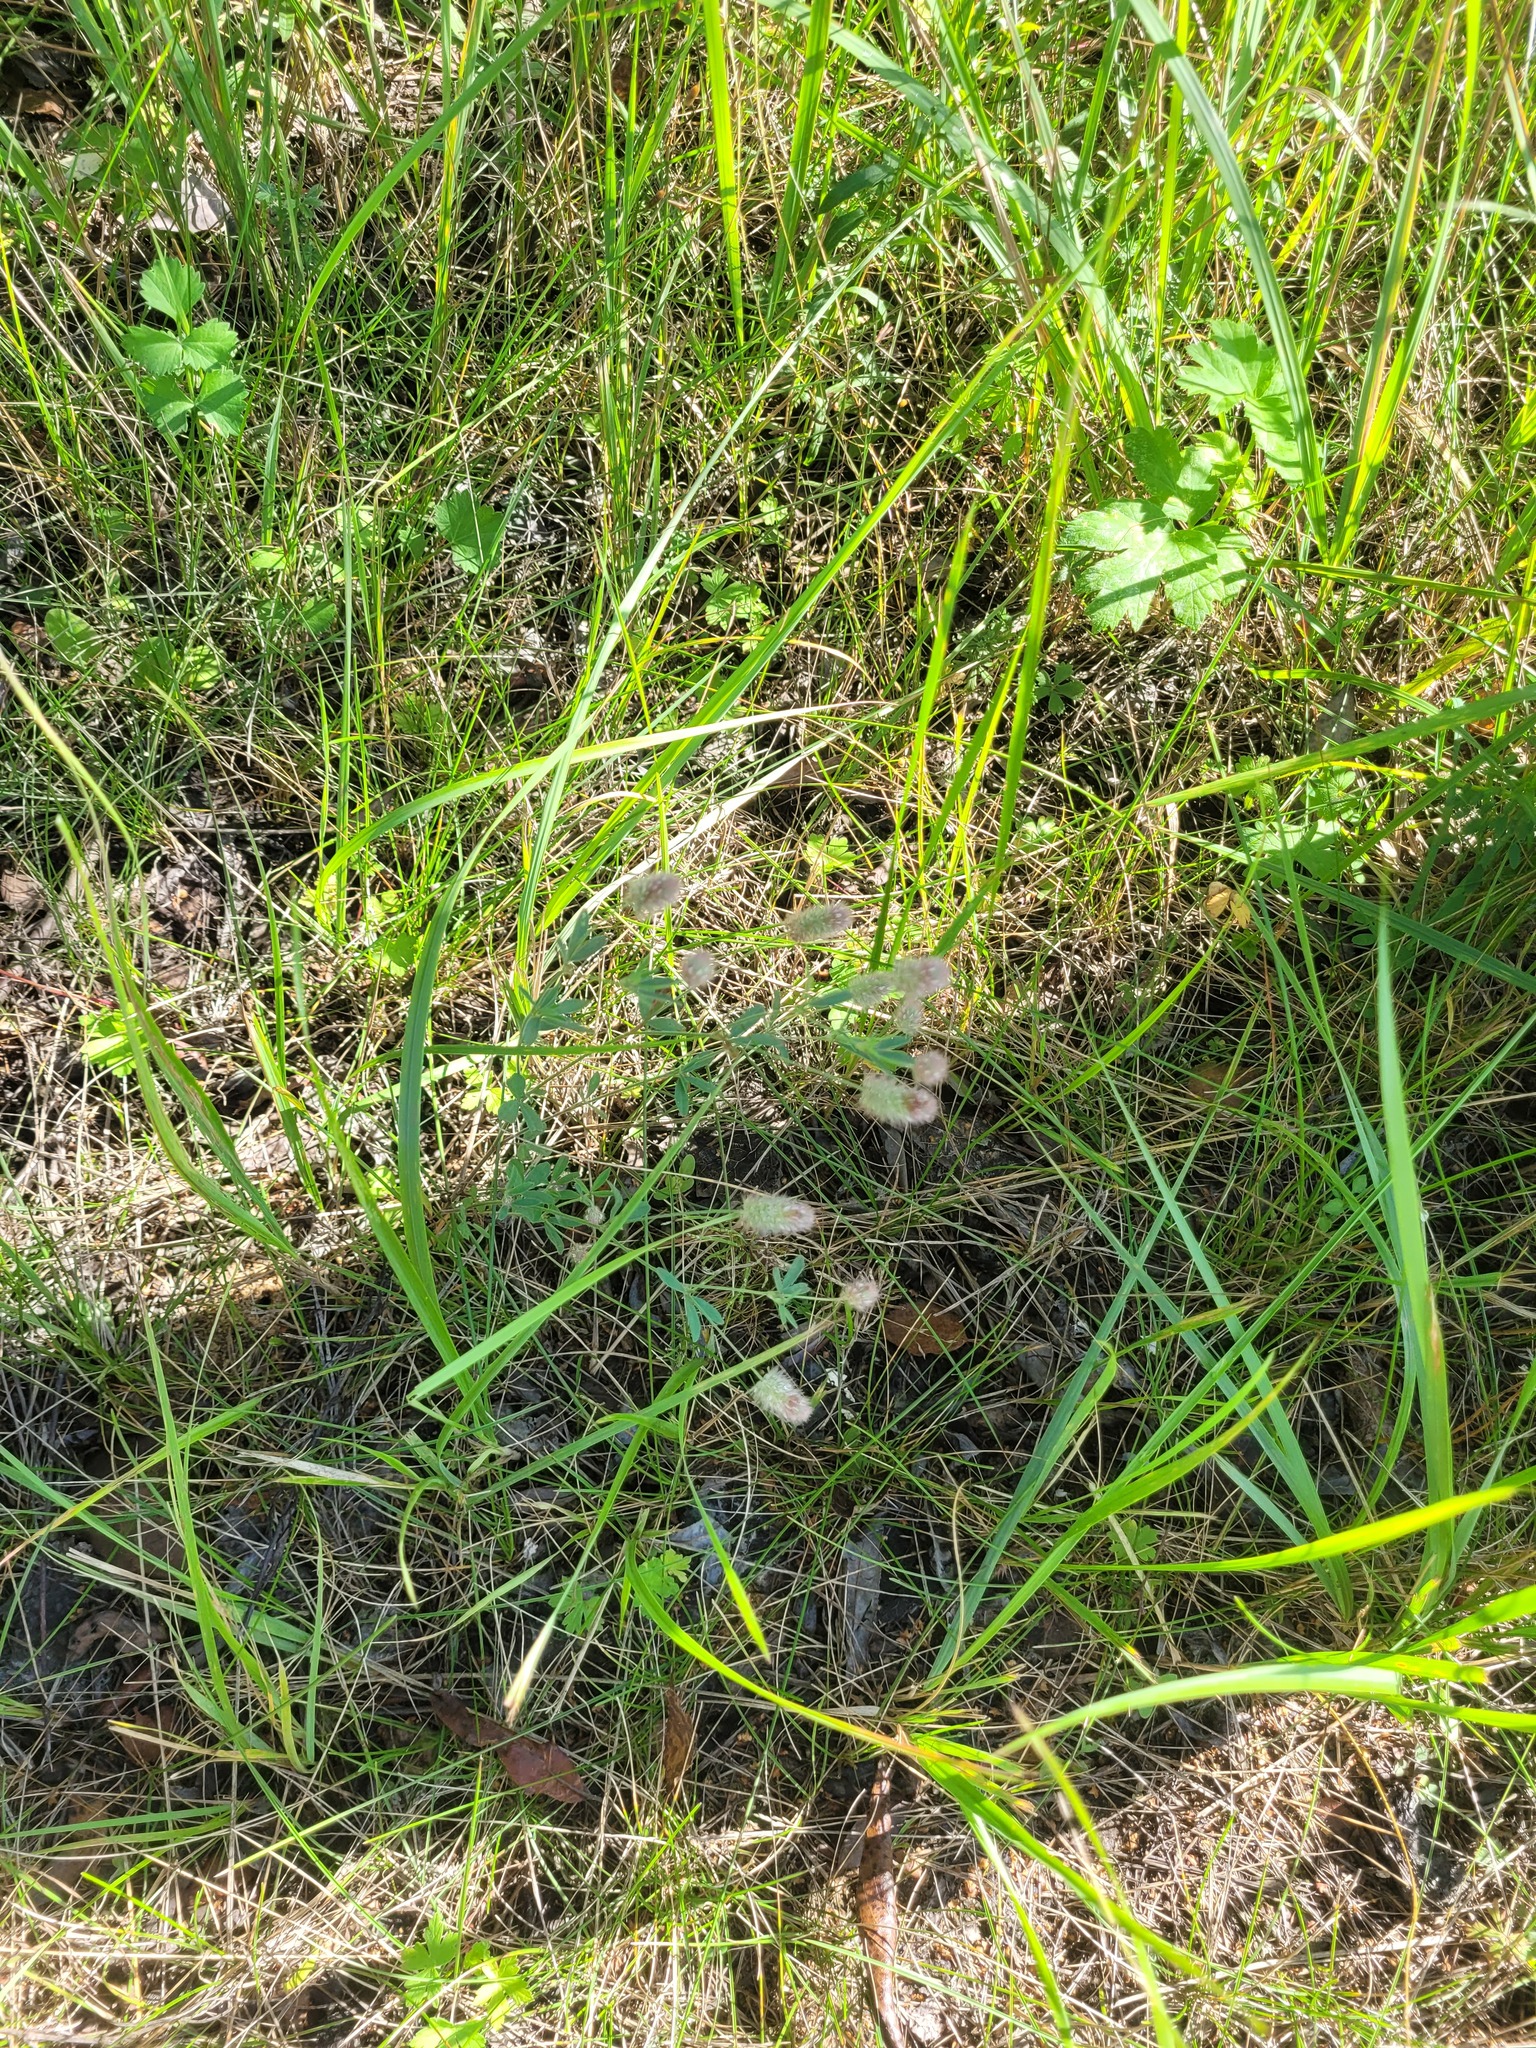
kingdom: Plantae
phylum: Tracheophyta
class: Magnoliopsida
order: Fabales
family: Fabaceae
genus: Trifolium
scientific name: Trifolium arvense
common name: Hare's-foot clover
